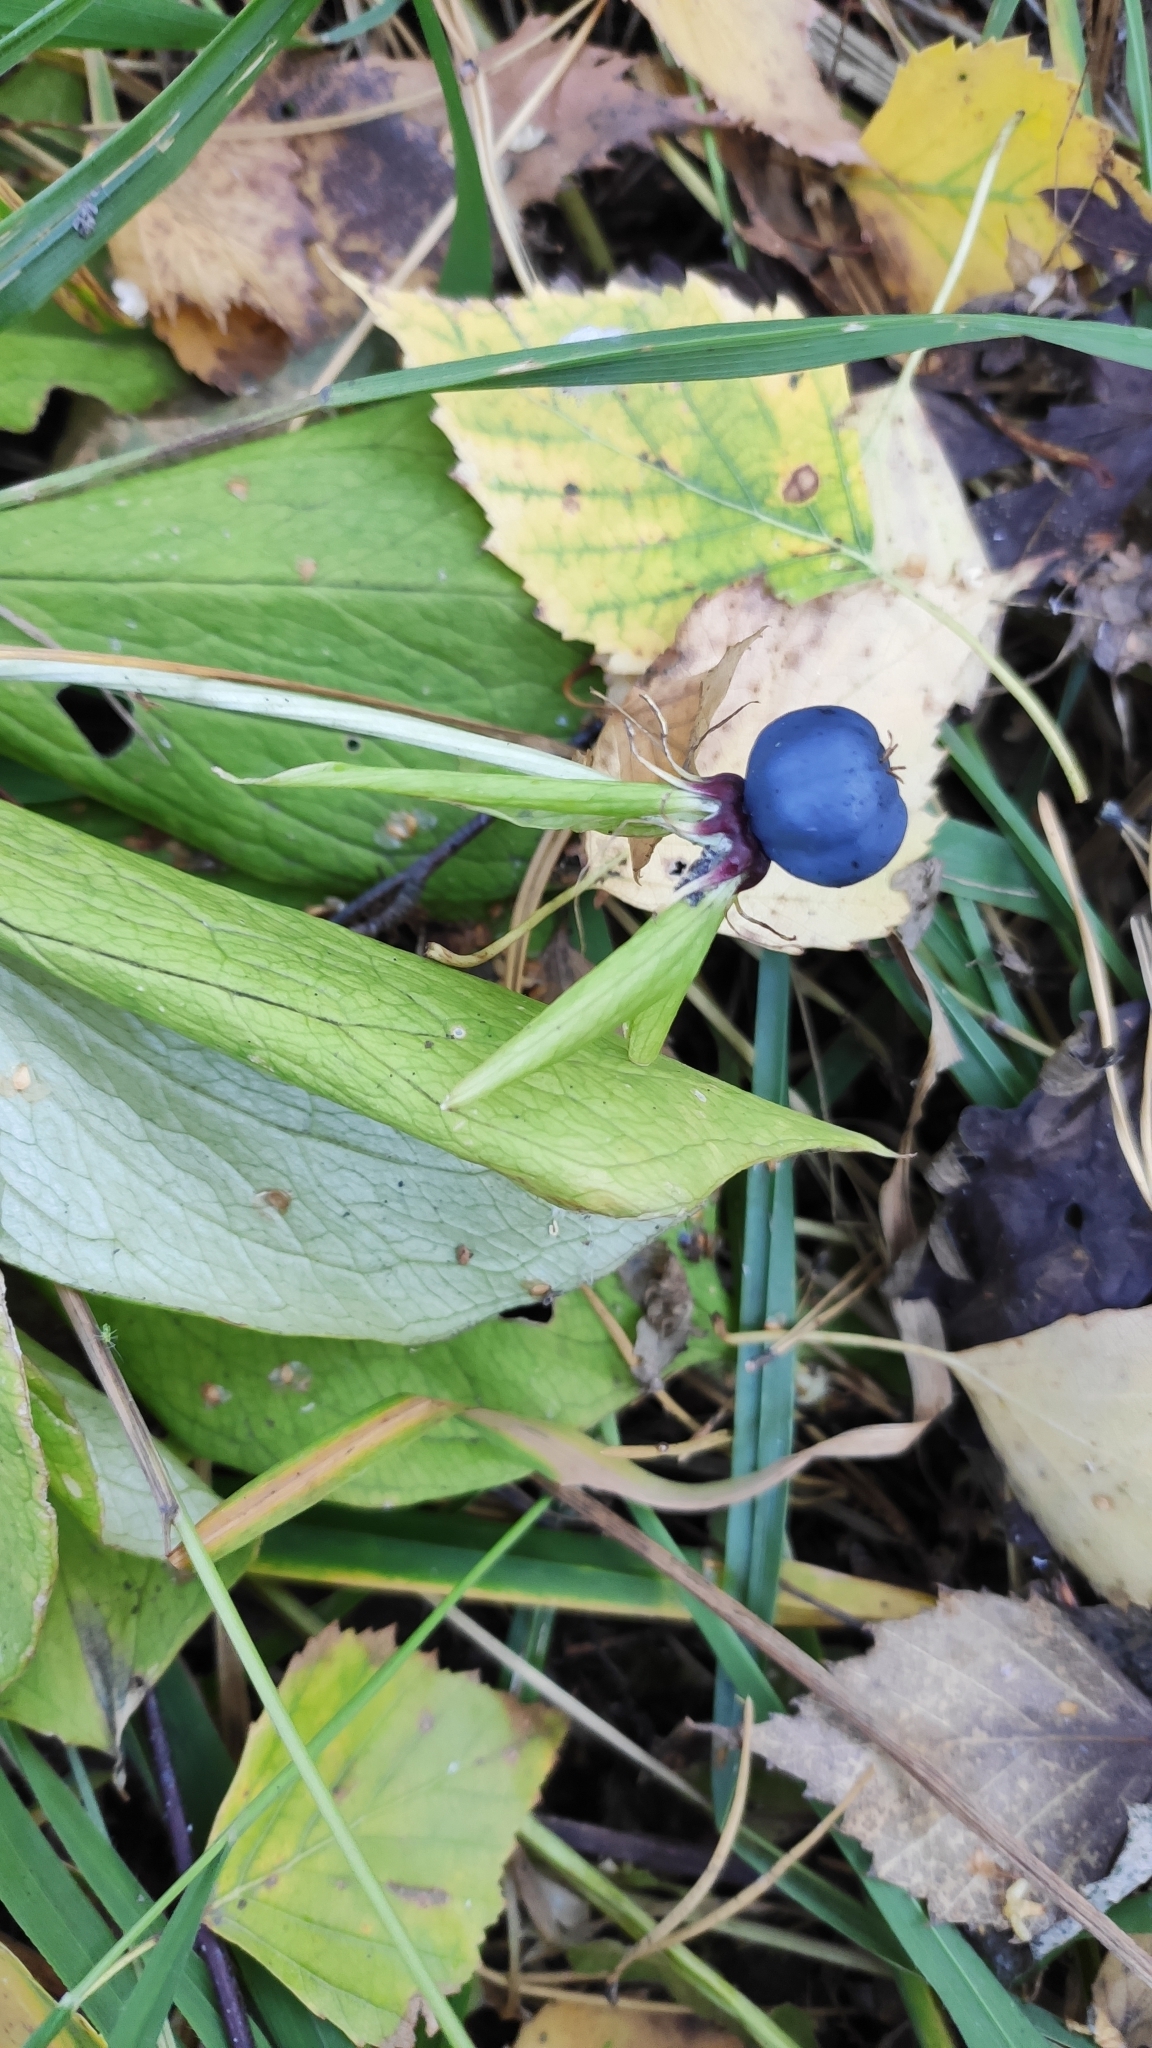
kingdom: Plantae
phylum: Tracheophyta
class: Liliopsida
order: Liliales
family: Melanthiaceae
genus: Paris
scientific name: Paris quadrifolia
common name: Herb-paris
